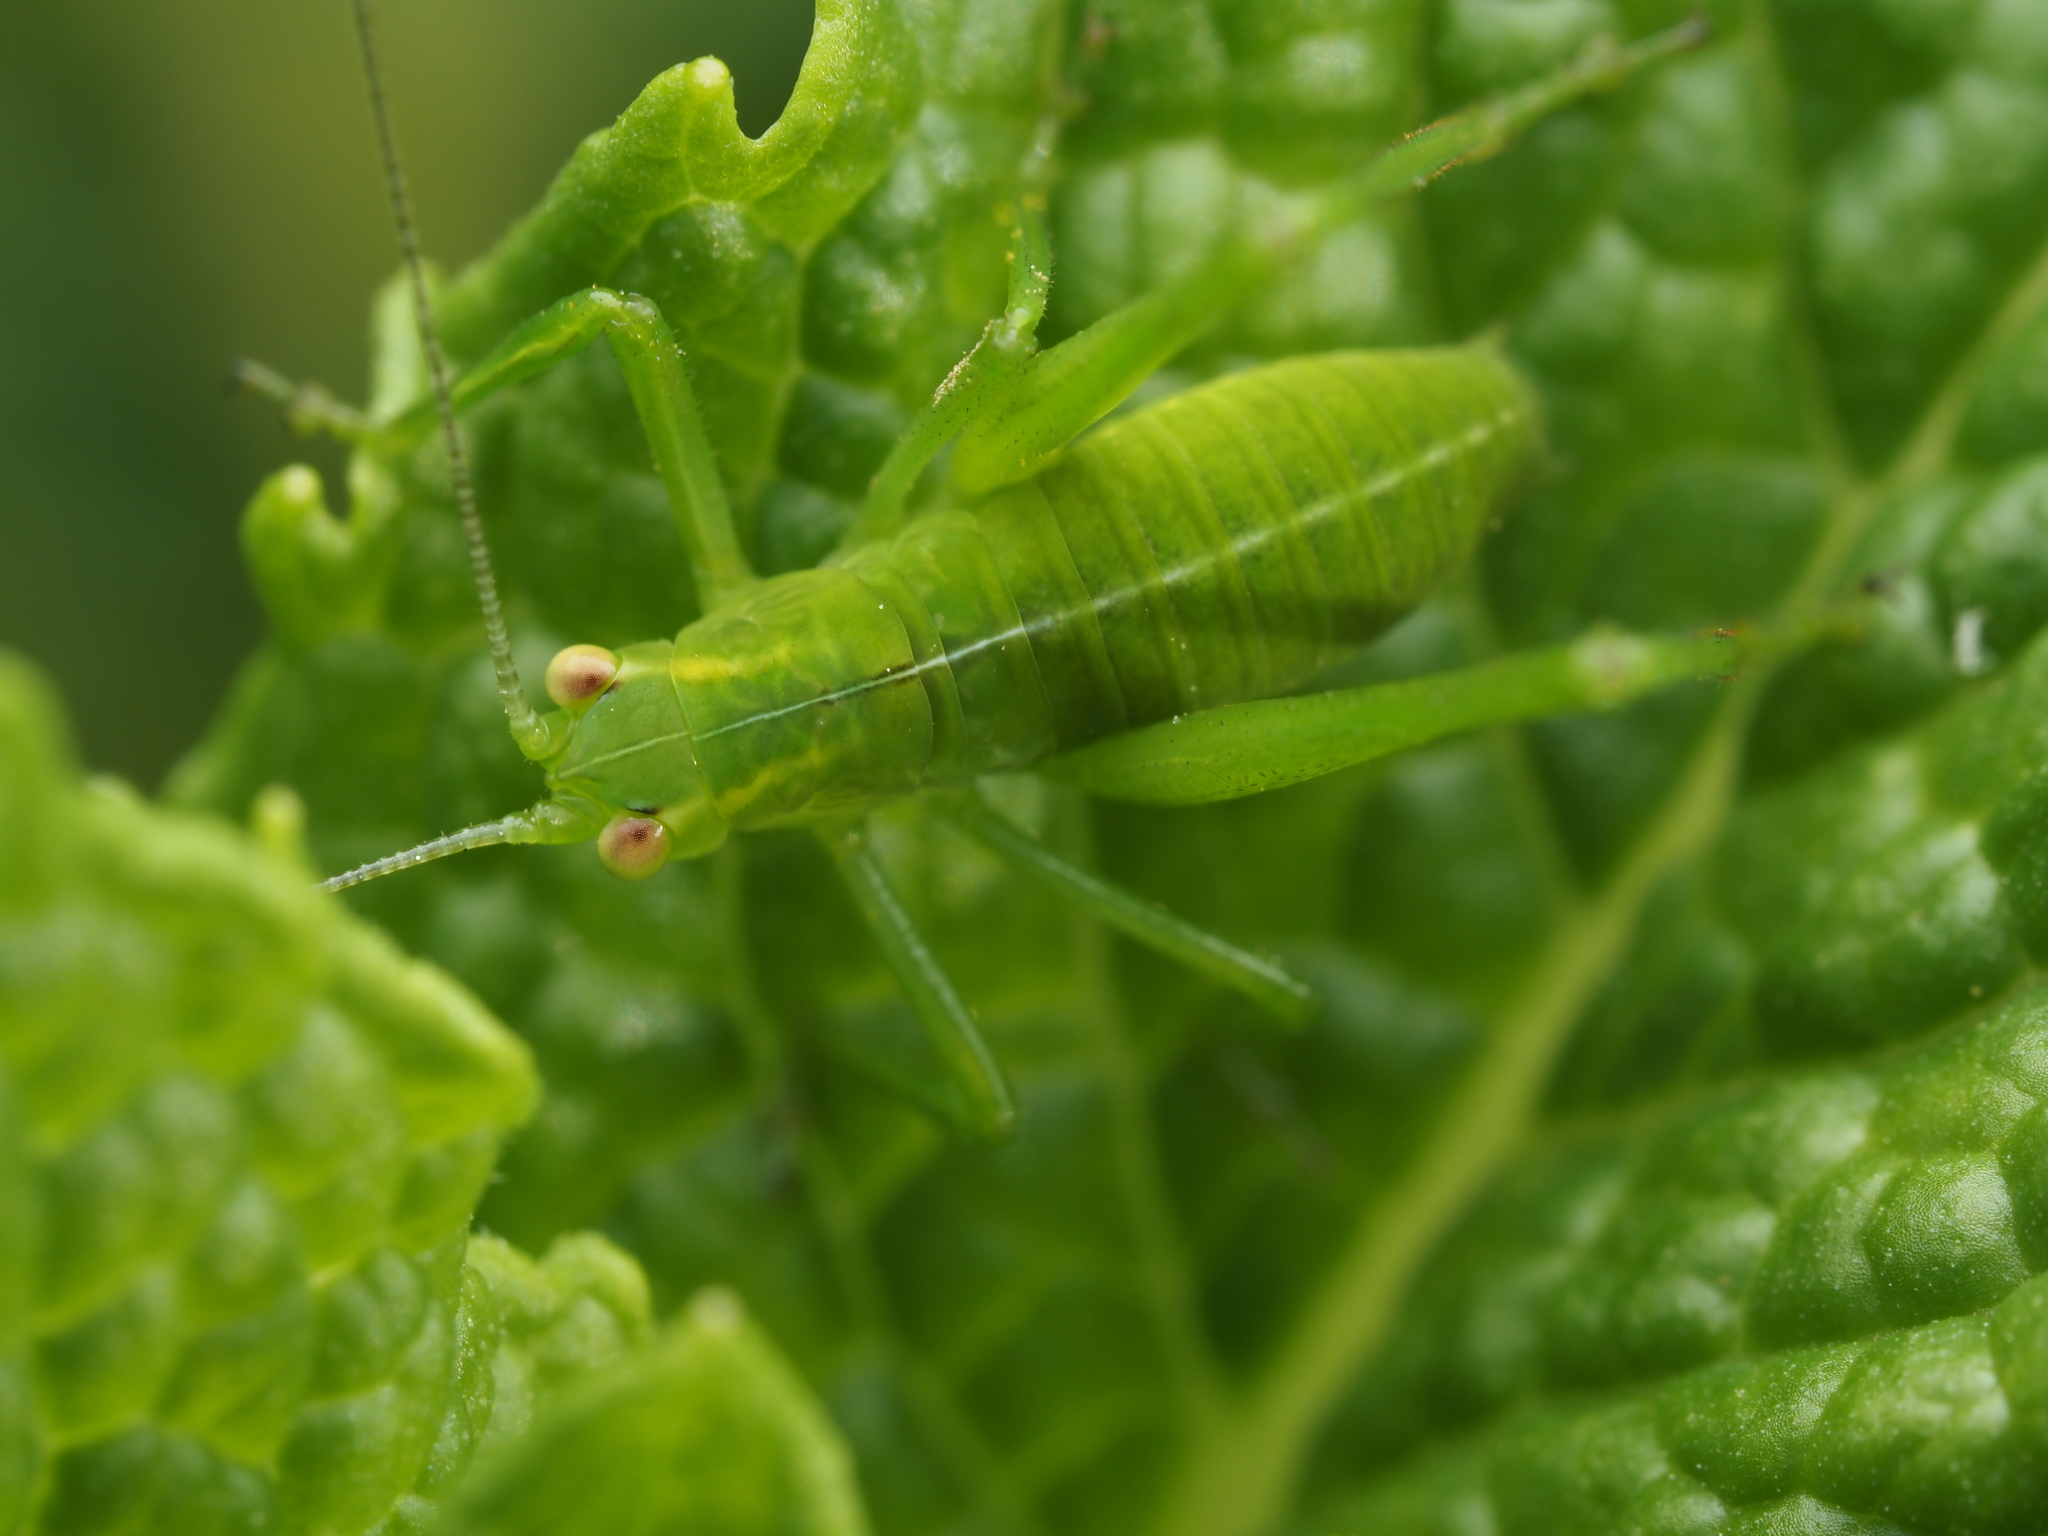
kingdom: Animalia
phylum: Arthropoda
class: Insecta
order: Orthoptera
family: Tettigoniidae
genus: Caedicia
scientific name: Caedicia simplex
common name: Common garden katydid
